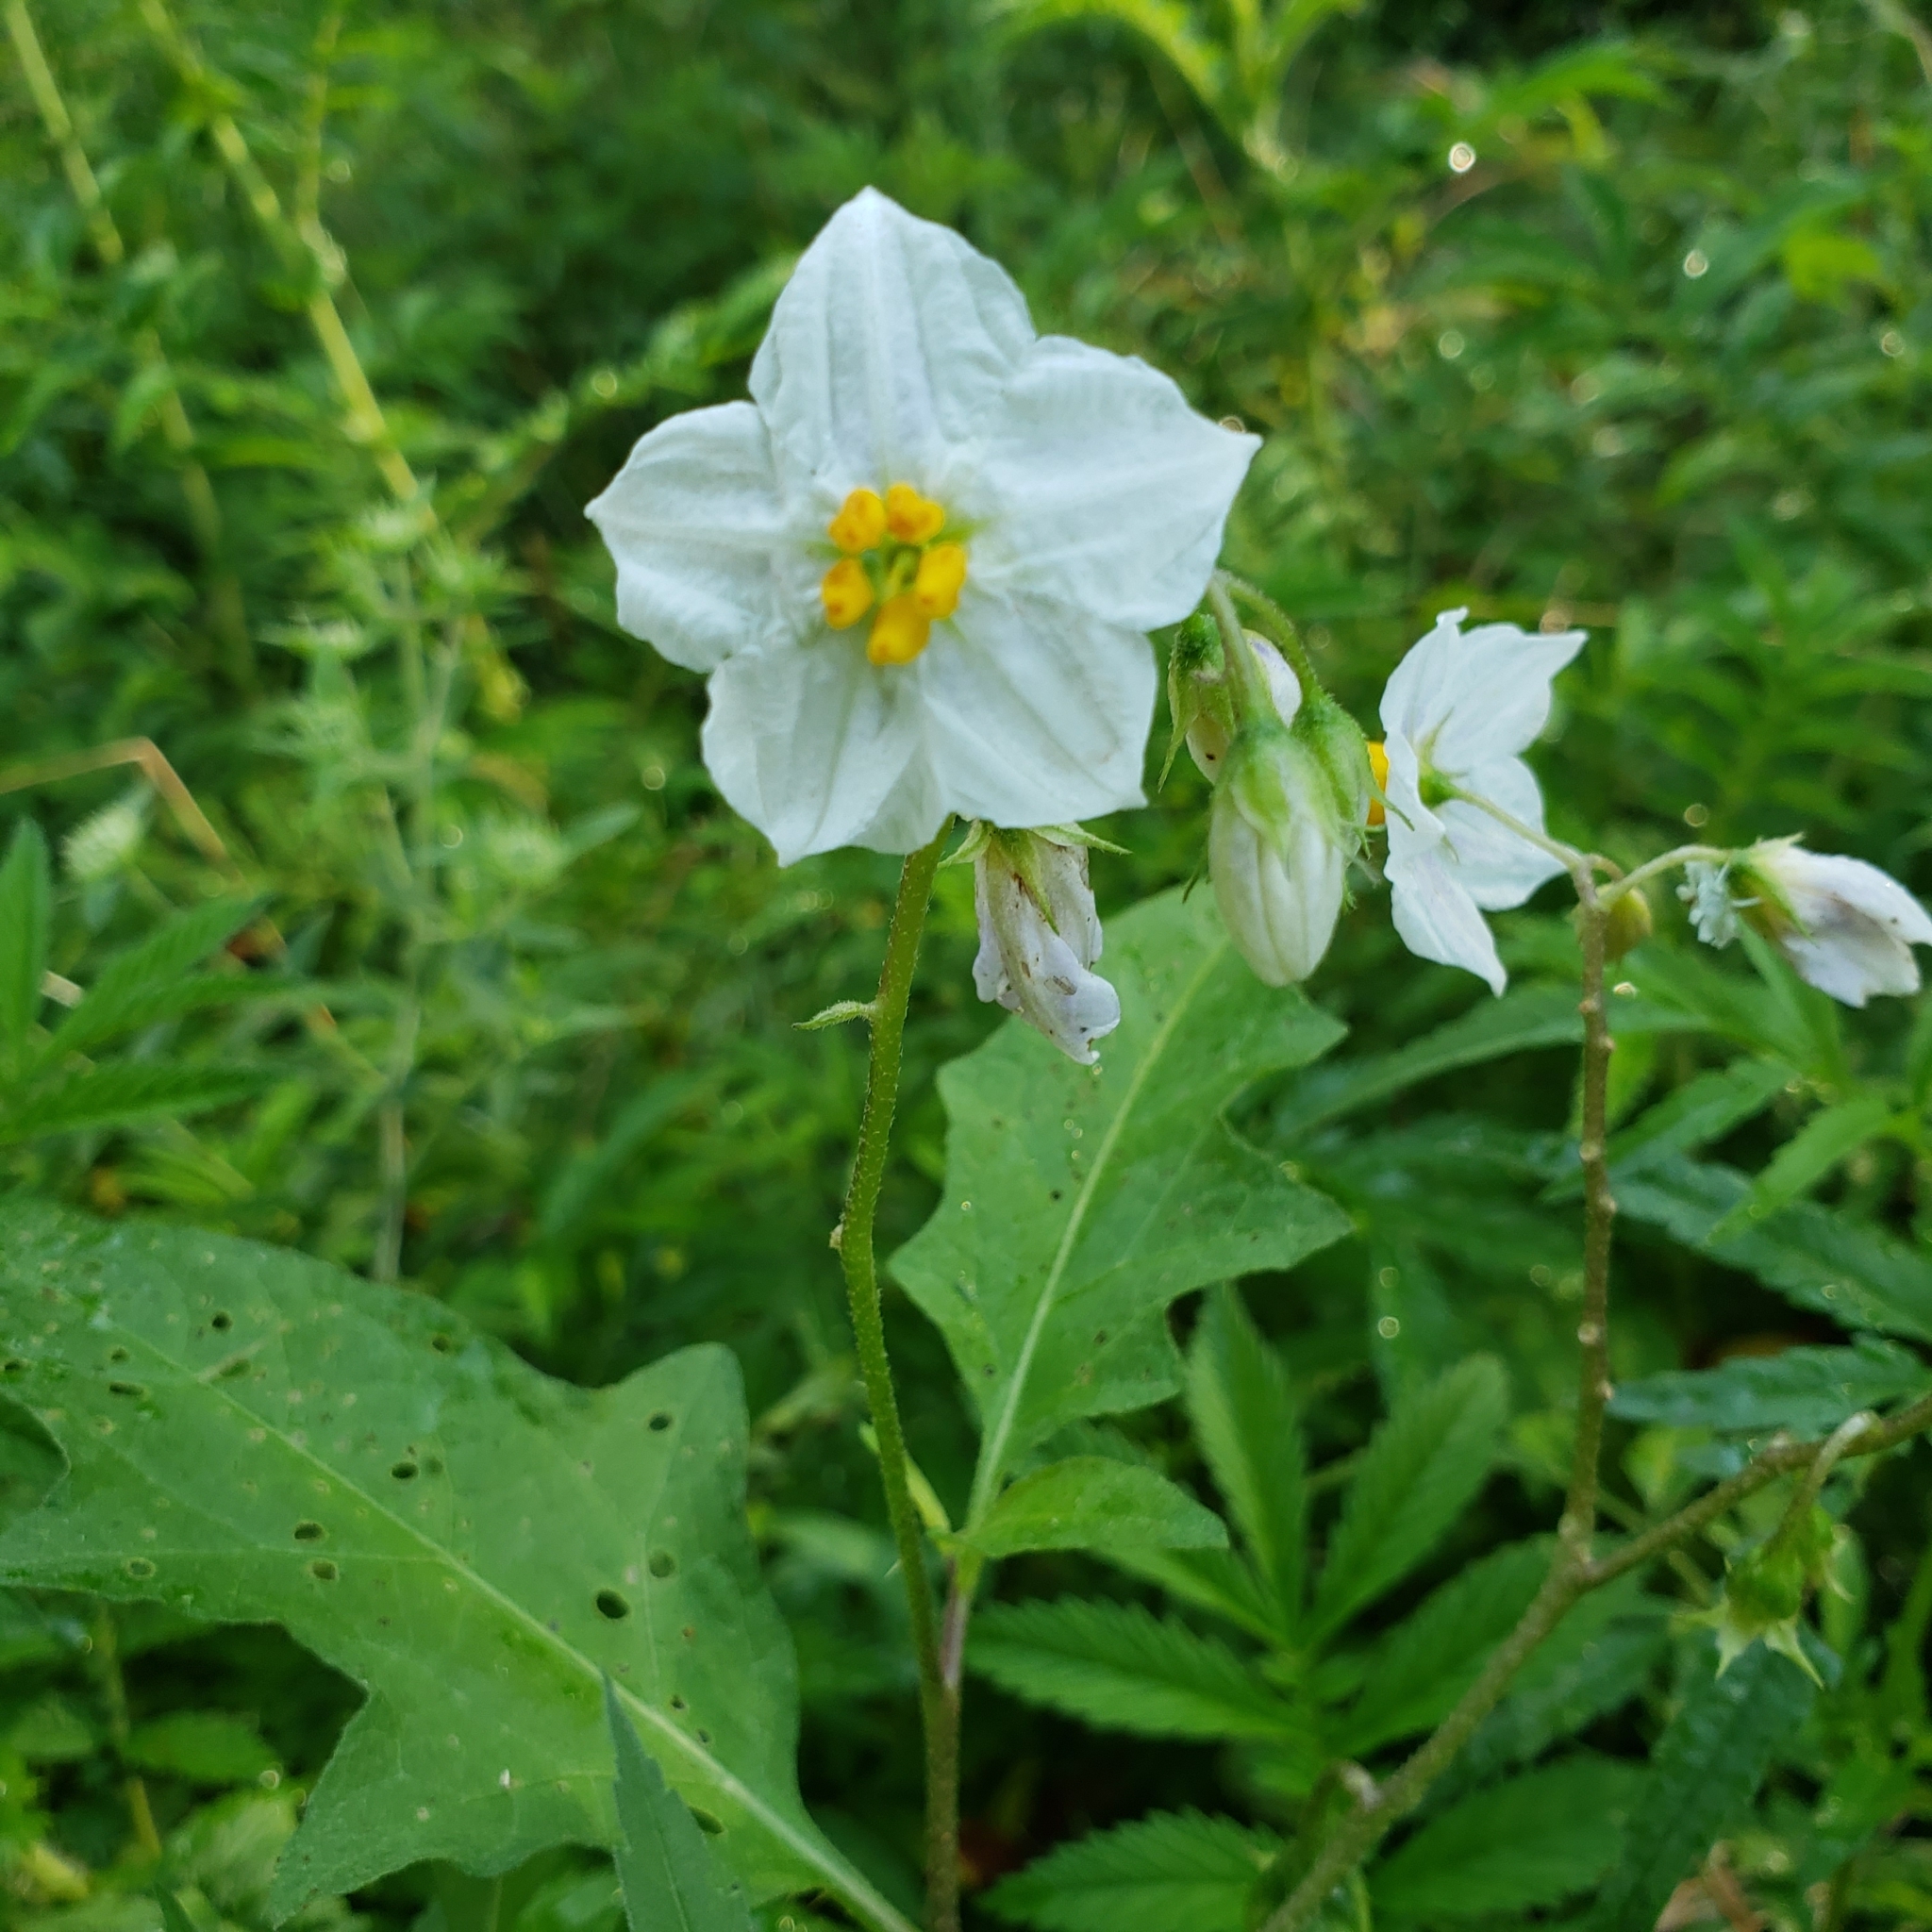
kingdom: Plantae
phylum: Tracheophyta
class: Magnoliopsida
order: Solanales
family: Solanaceae
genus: Solanum
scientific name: Solanum carolinense
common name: Horse-nettle
